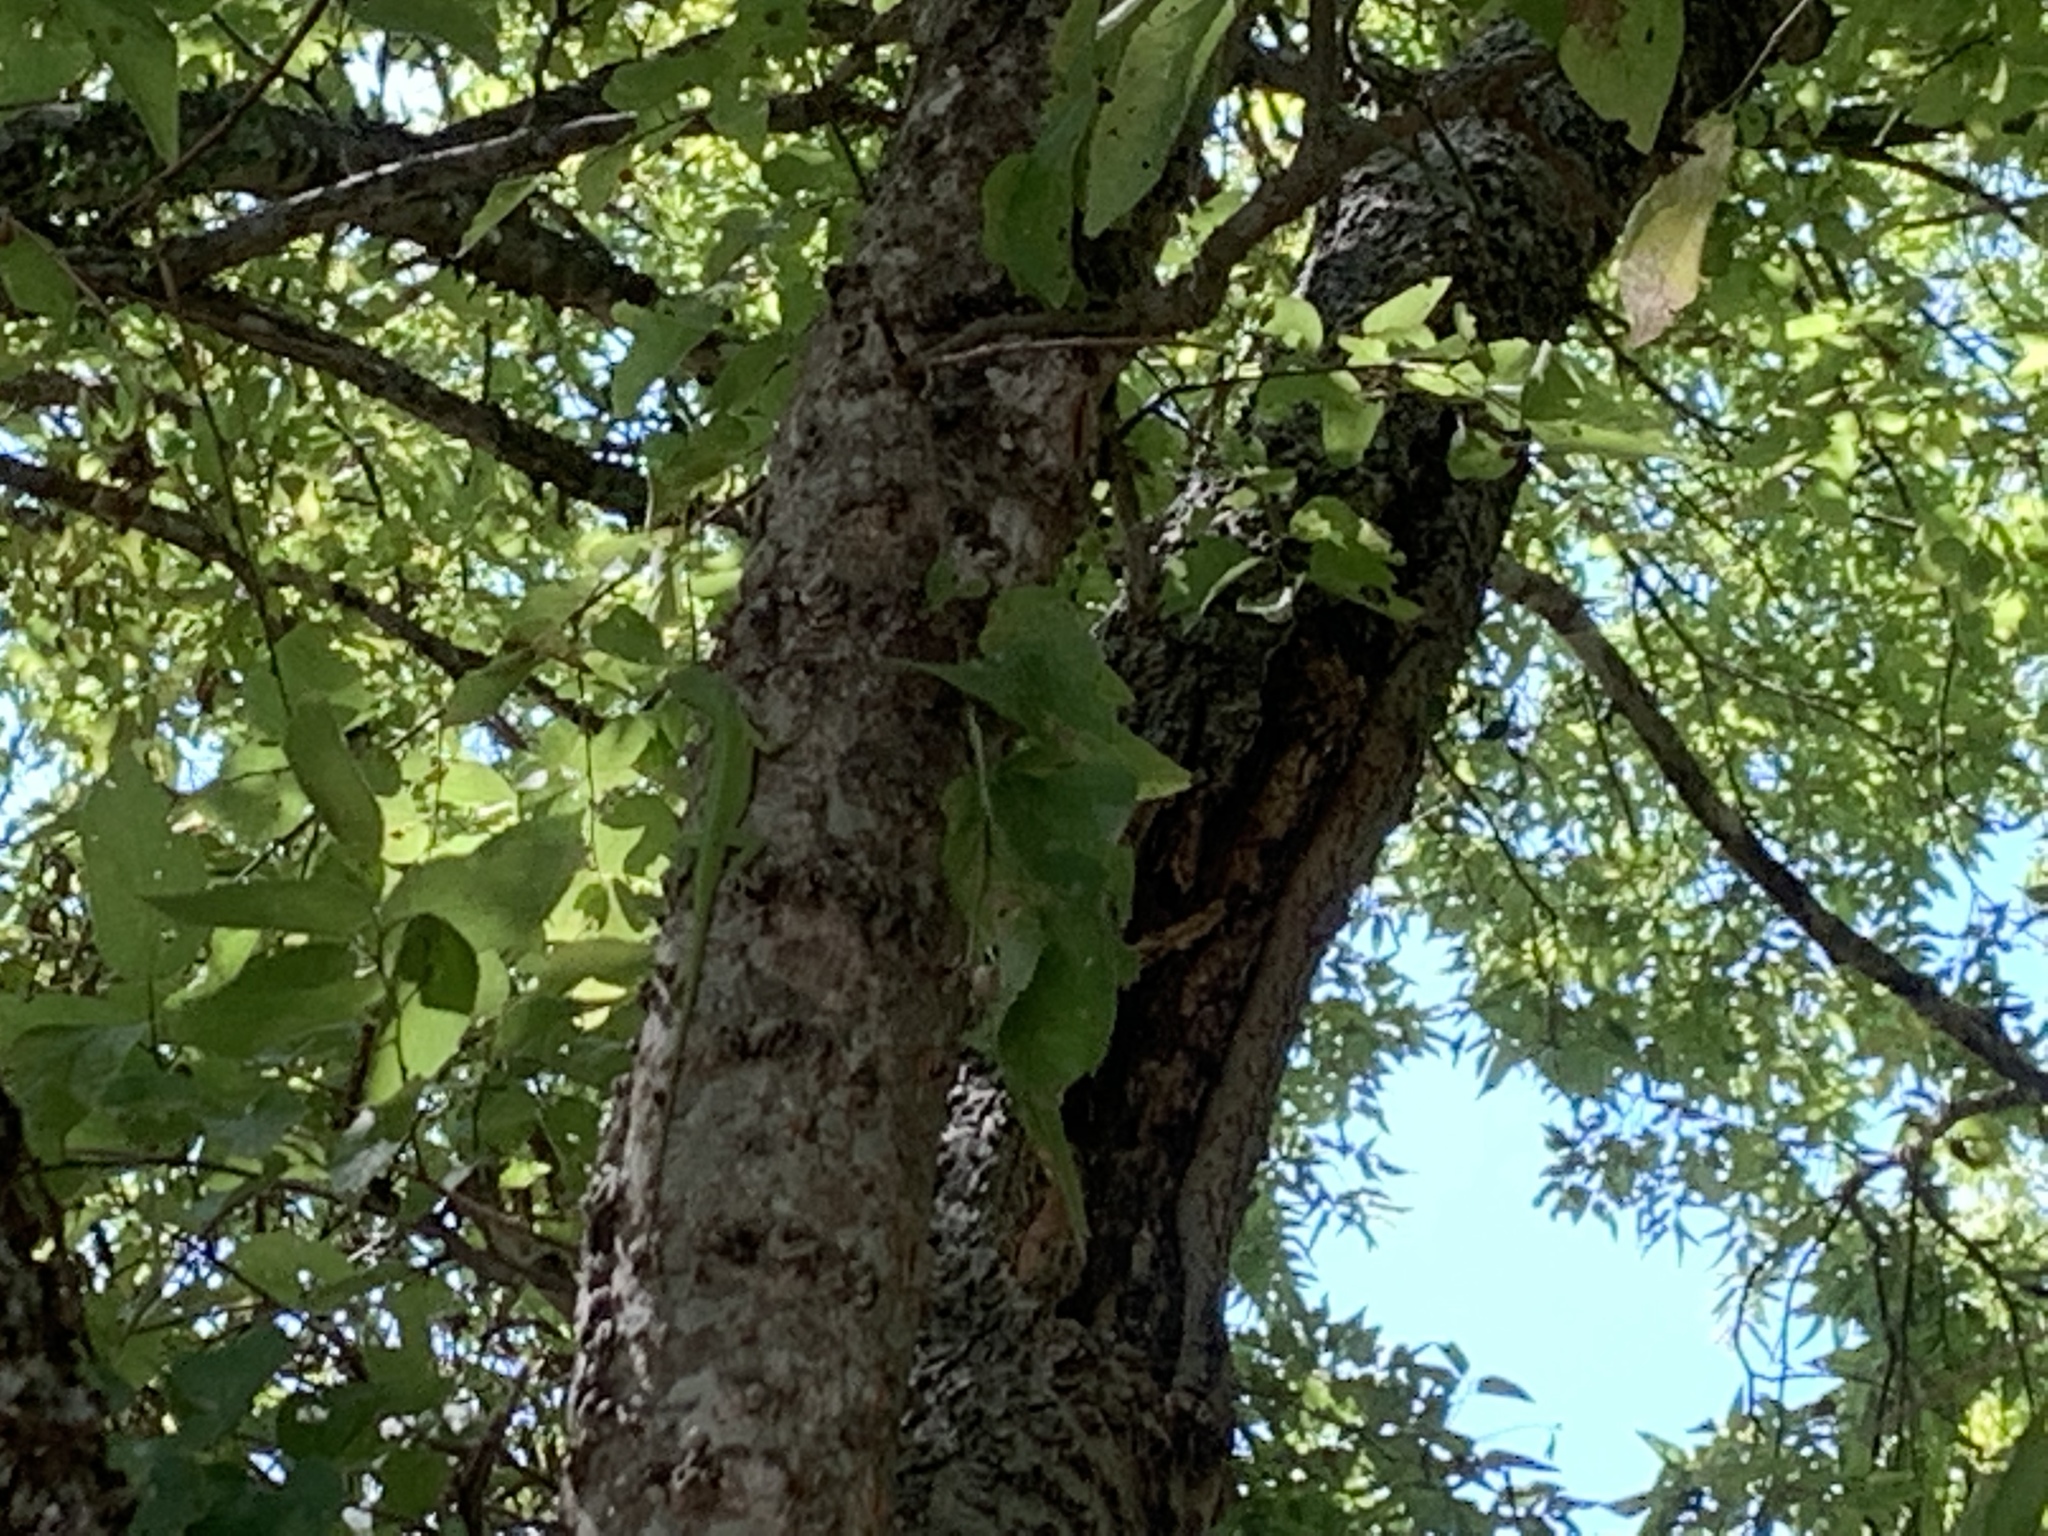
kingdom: Animalia
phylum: Chordata
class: Squamata
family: Dactyloidae
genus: Anolis
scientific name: Anolis carolinensis
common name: Green anole
